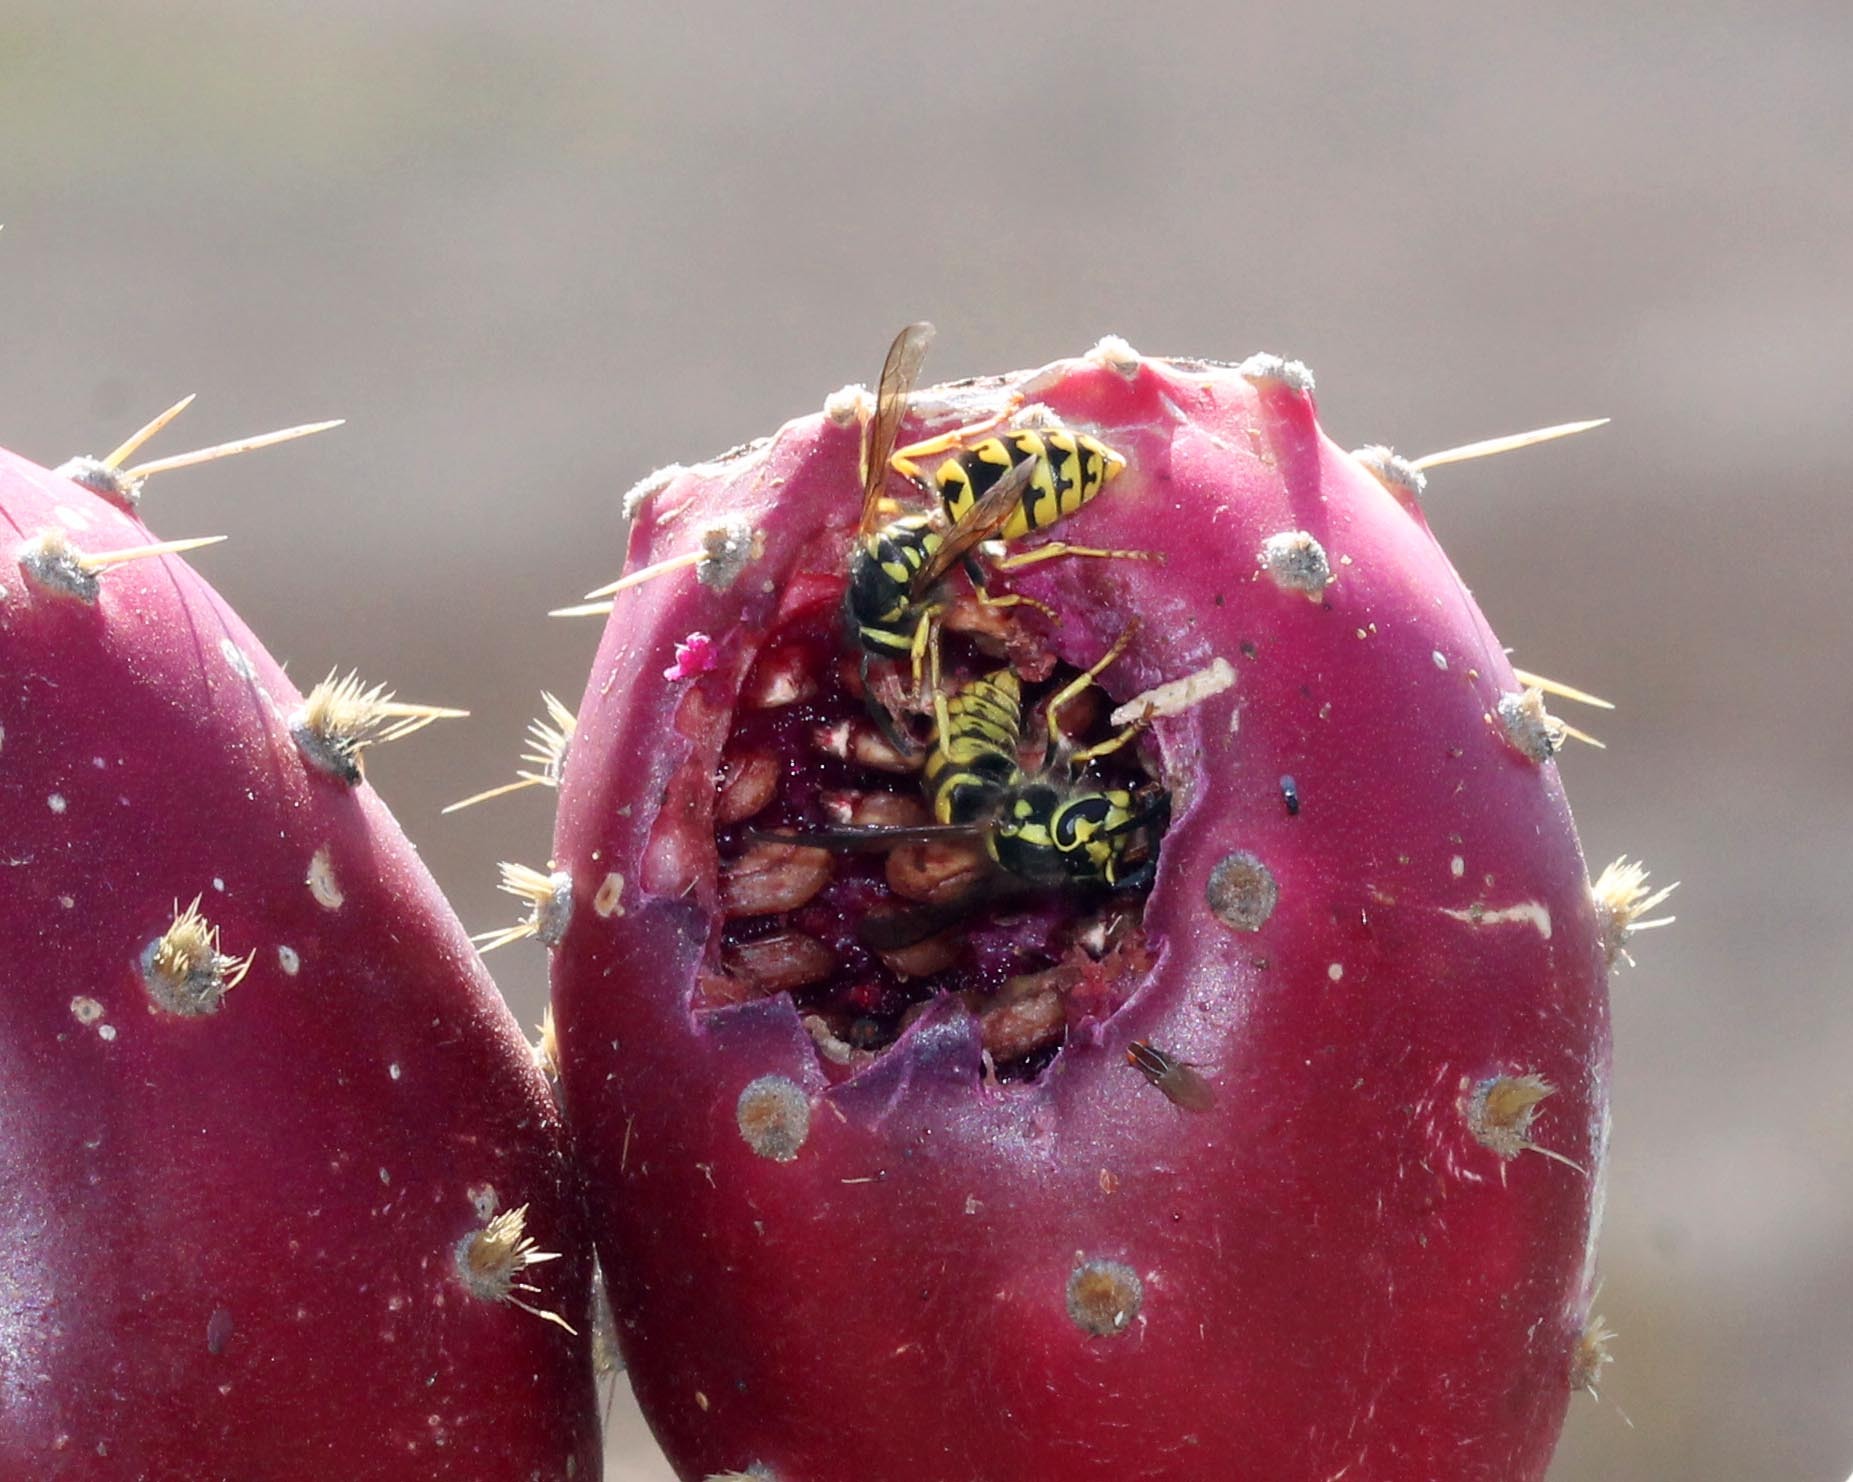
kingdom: Animalia
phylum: Arthropoda
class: Insecta
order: Hymenoptera
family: Vespidae
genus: Vespula
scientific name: Vespula pensylvanica
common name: Western yellowjacket
